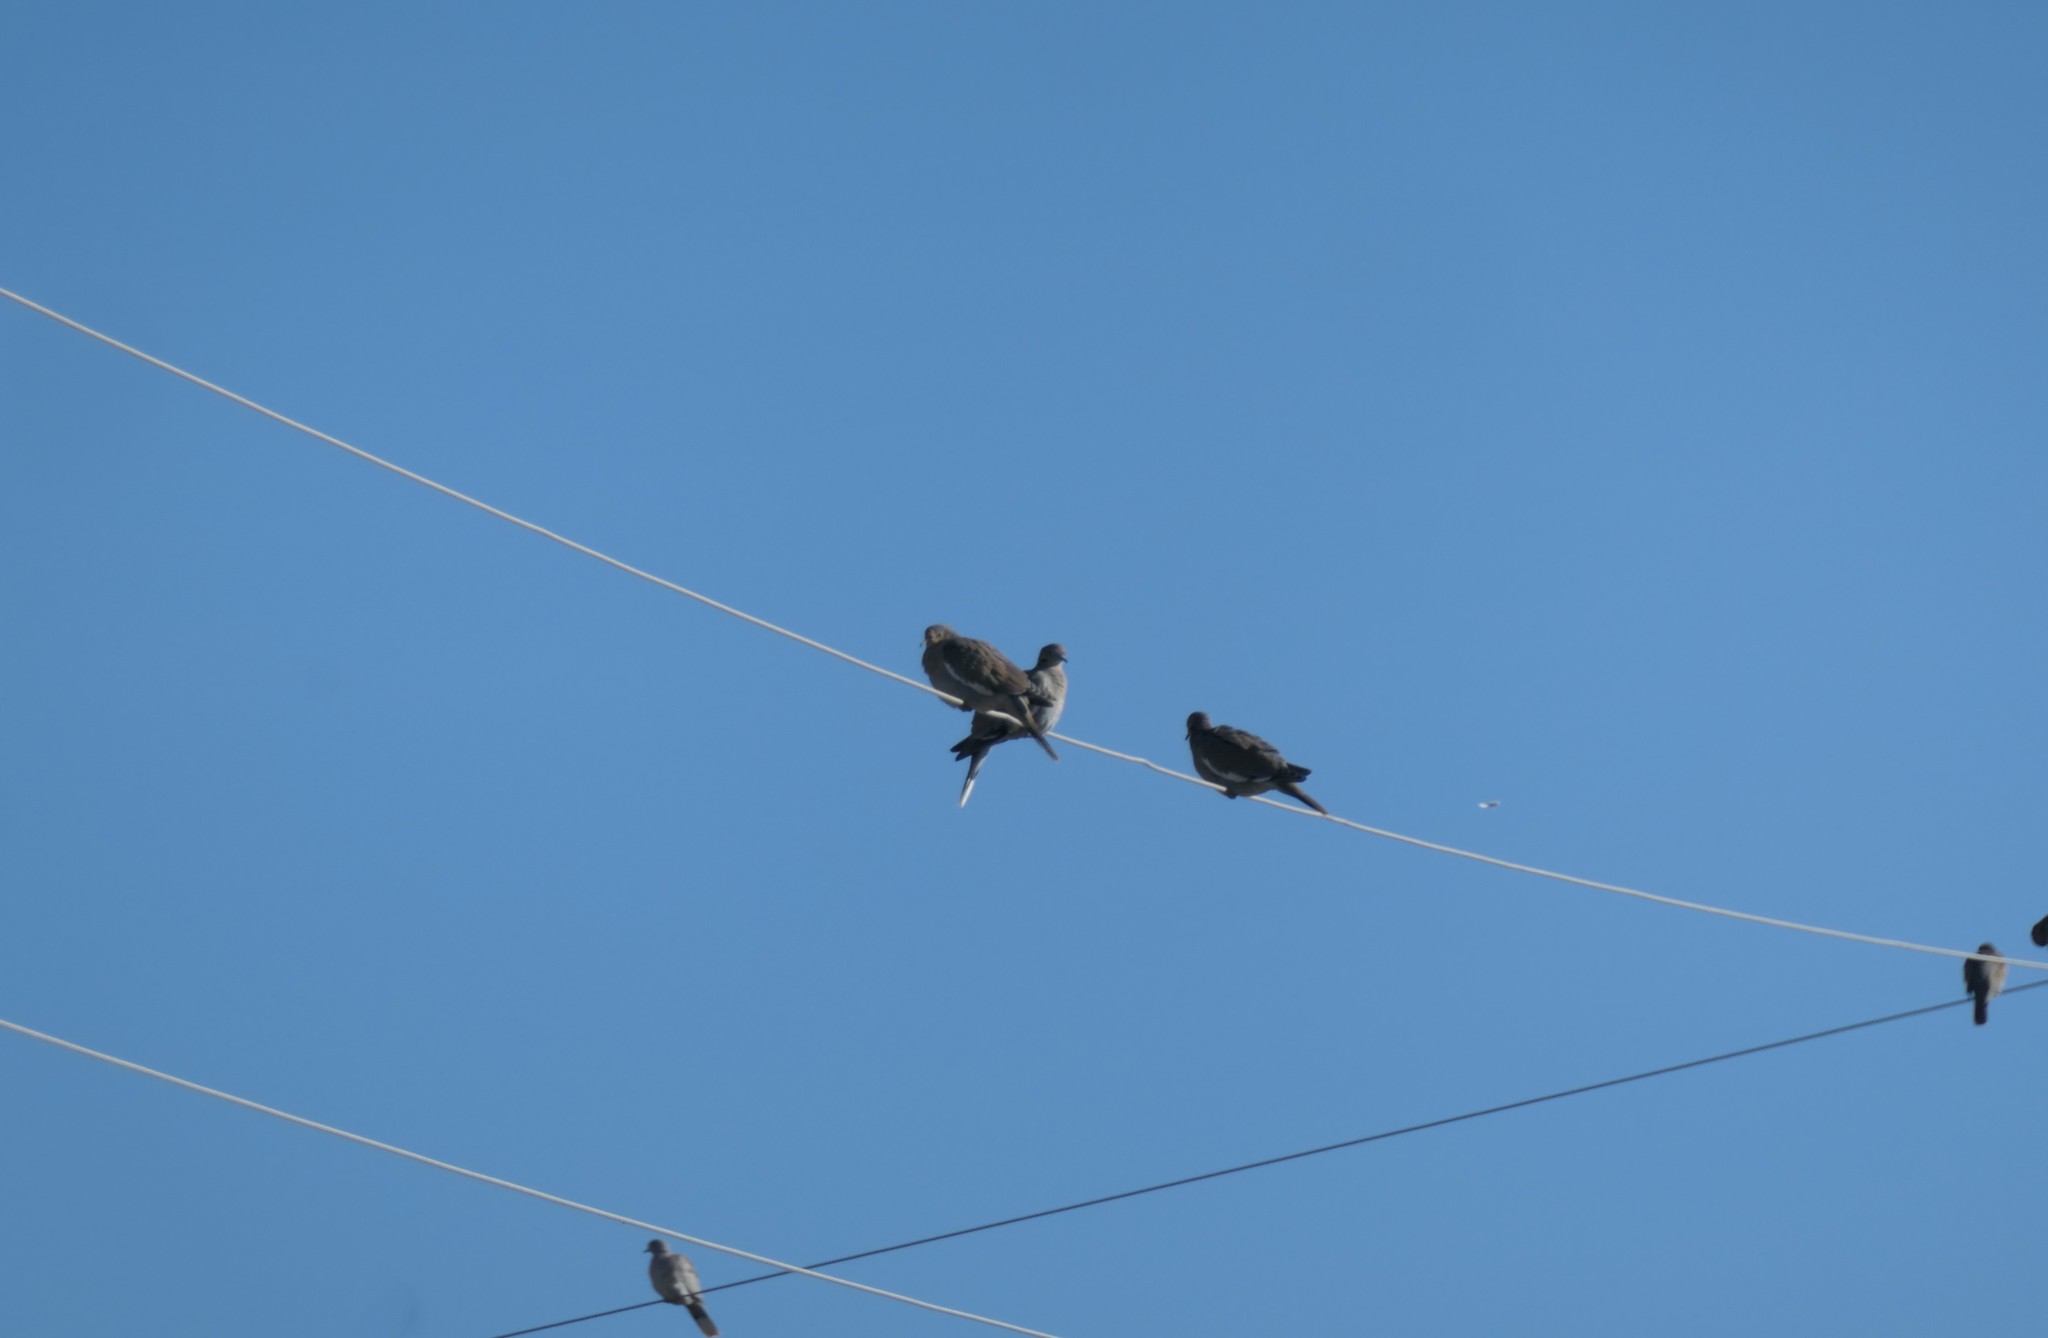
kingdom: Animalia
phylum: Chordata
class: Aves
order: Columbiformes
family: Columbidae
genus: Zenaida
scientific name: Zenaida asiatica
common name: White-winged dove
